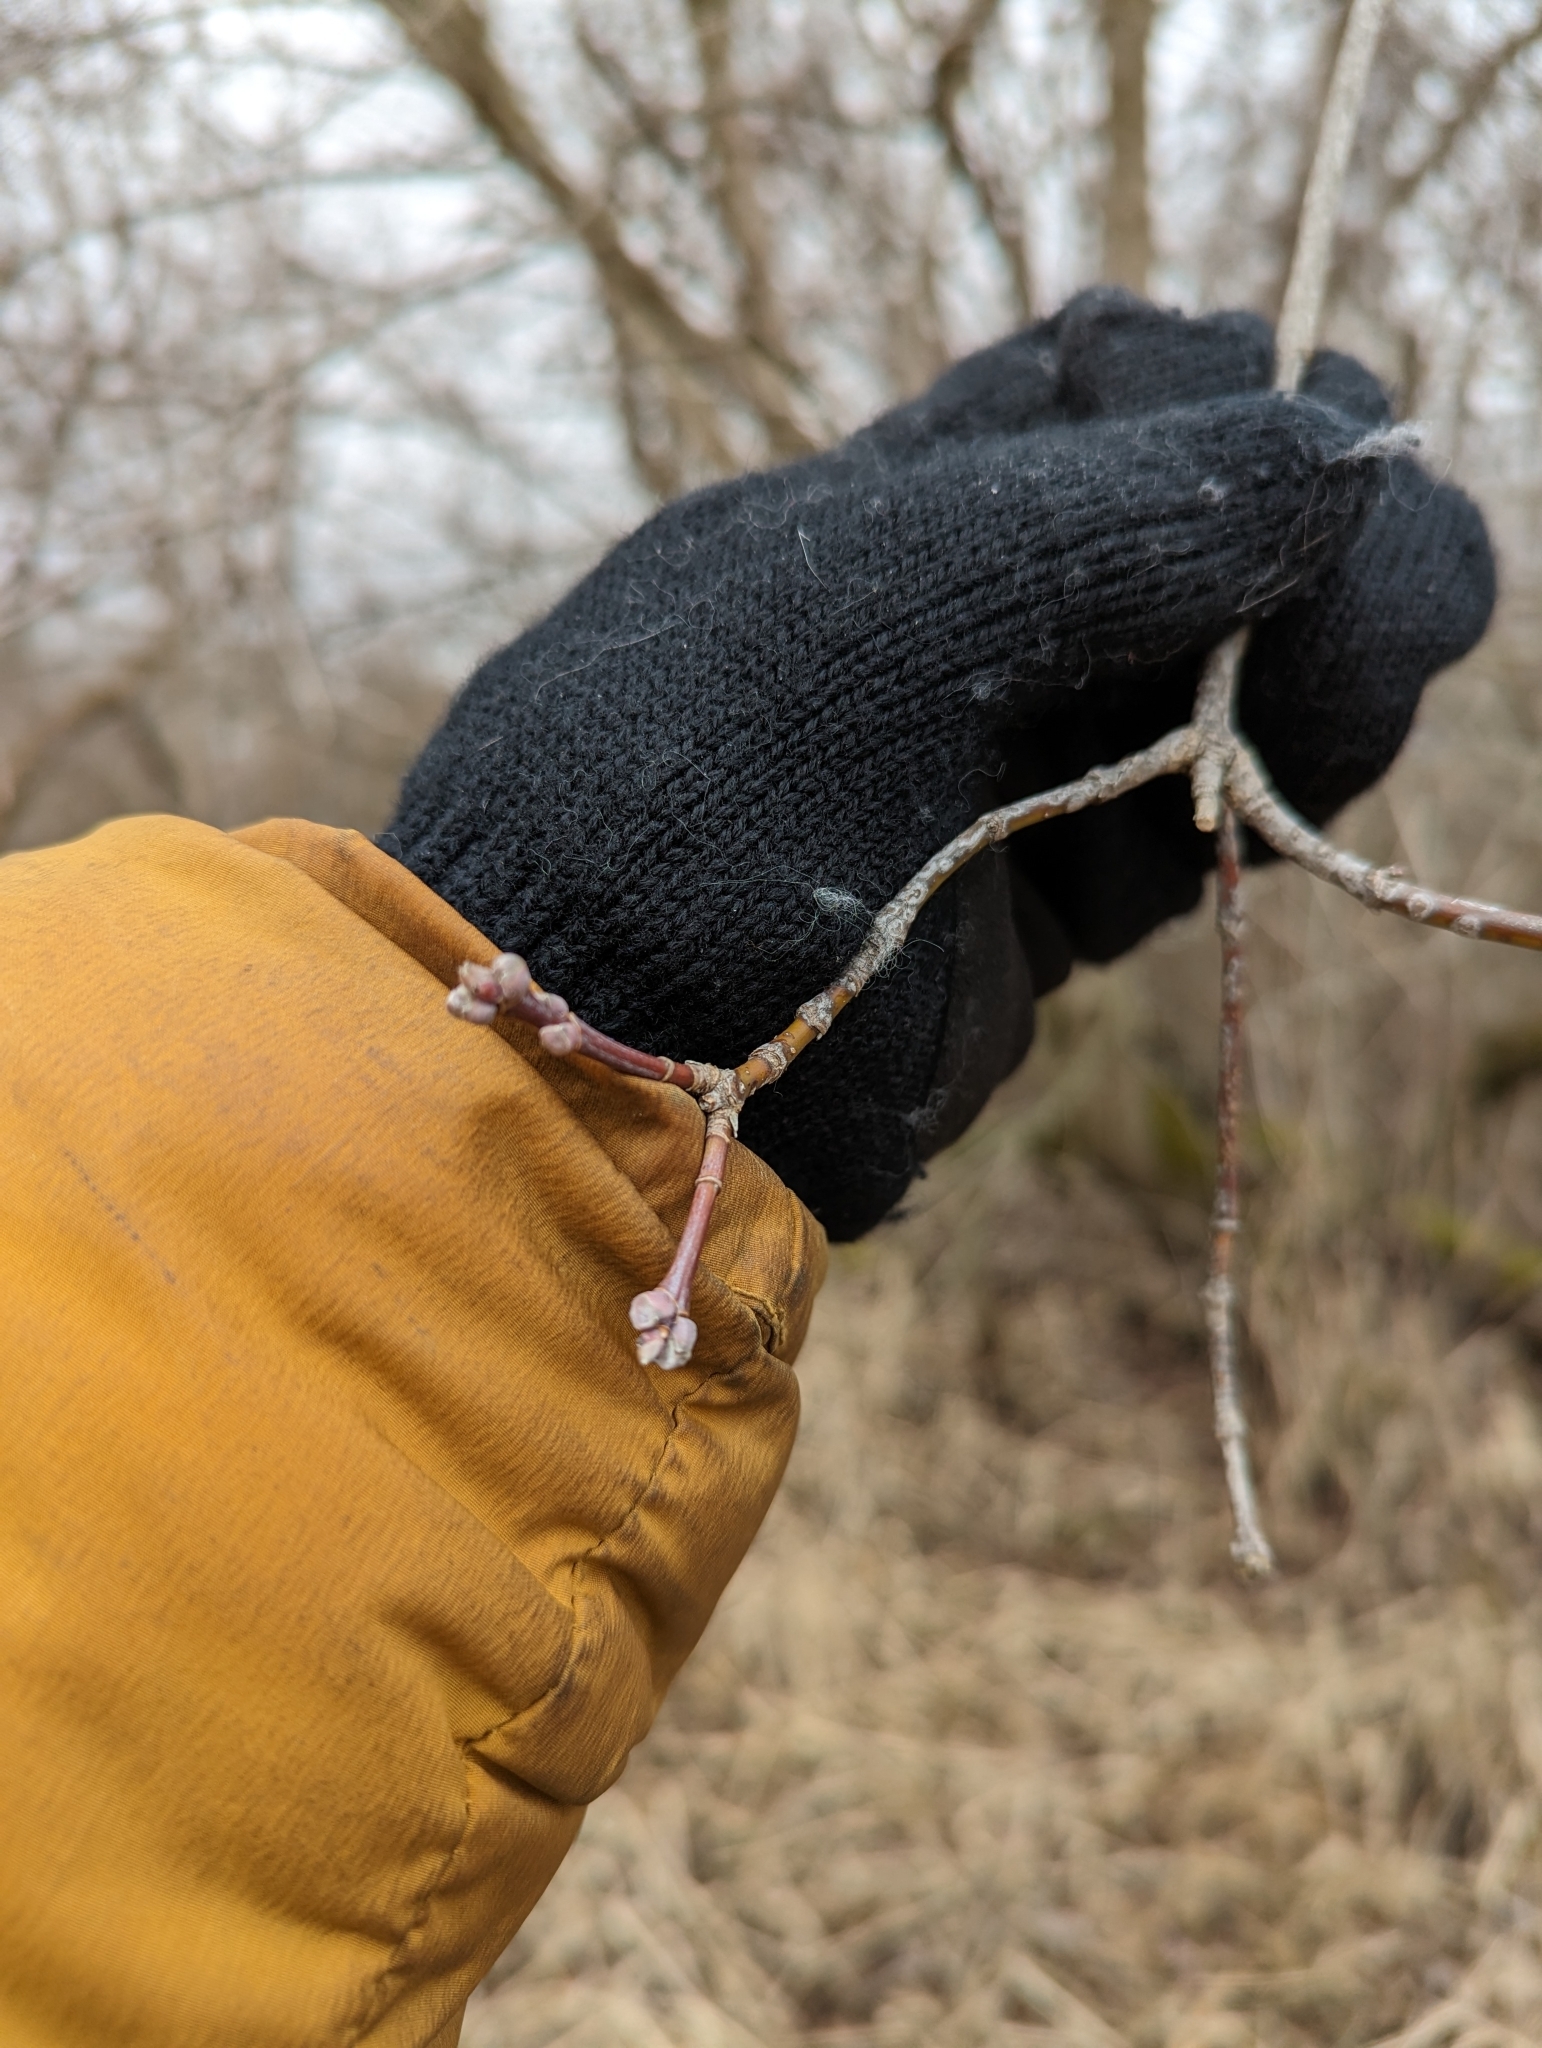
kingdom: Plantae
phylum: Tracheophyta
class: Magnoliopsida
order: Sapindales
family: Sapindaceae
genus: Acer
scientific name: Acer negundo
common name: Ashleaf maple
